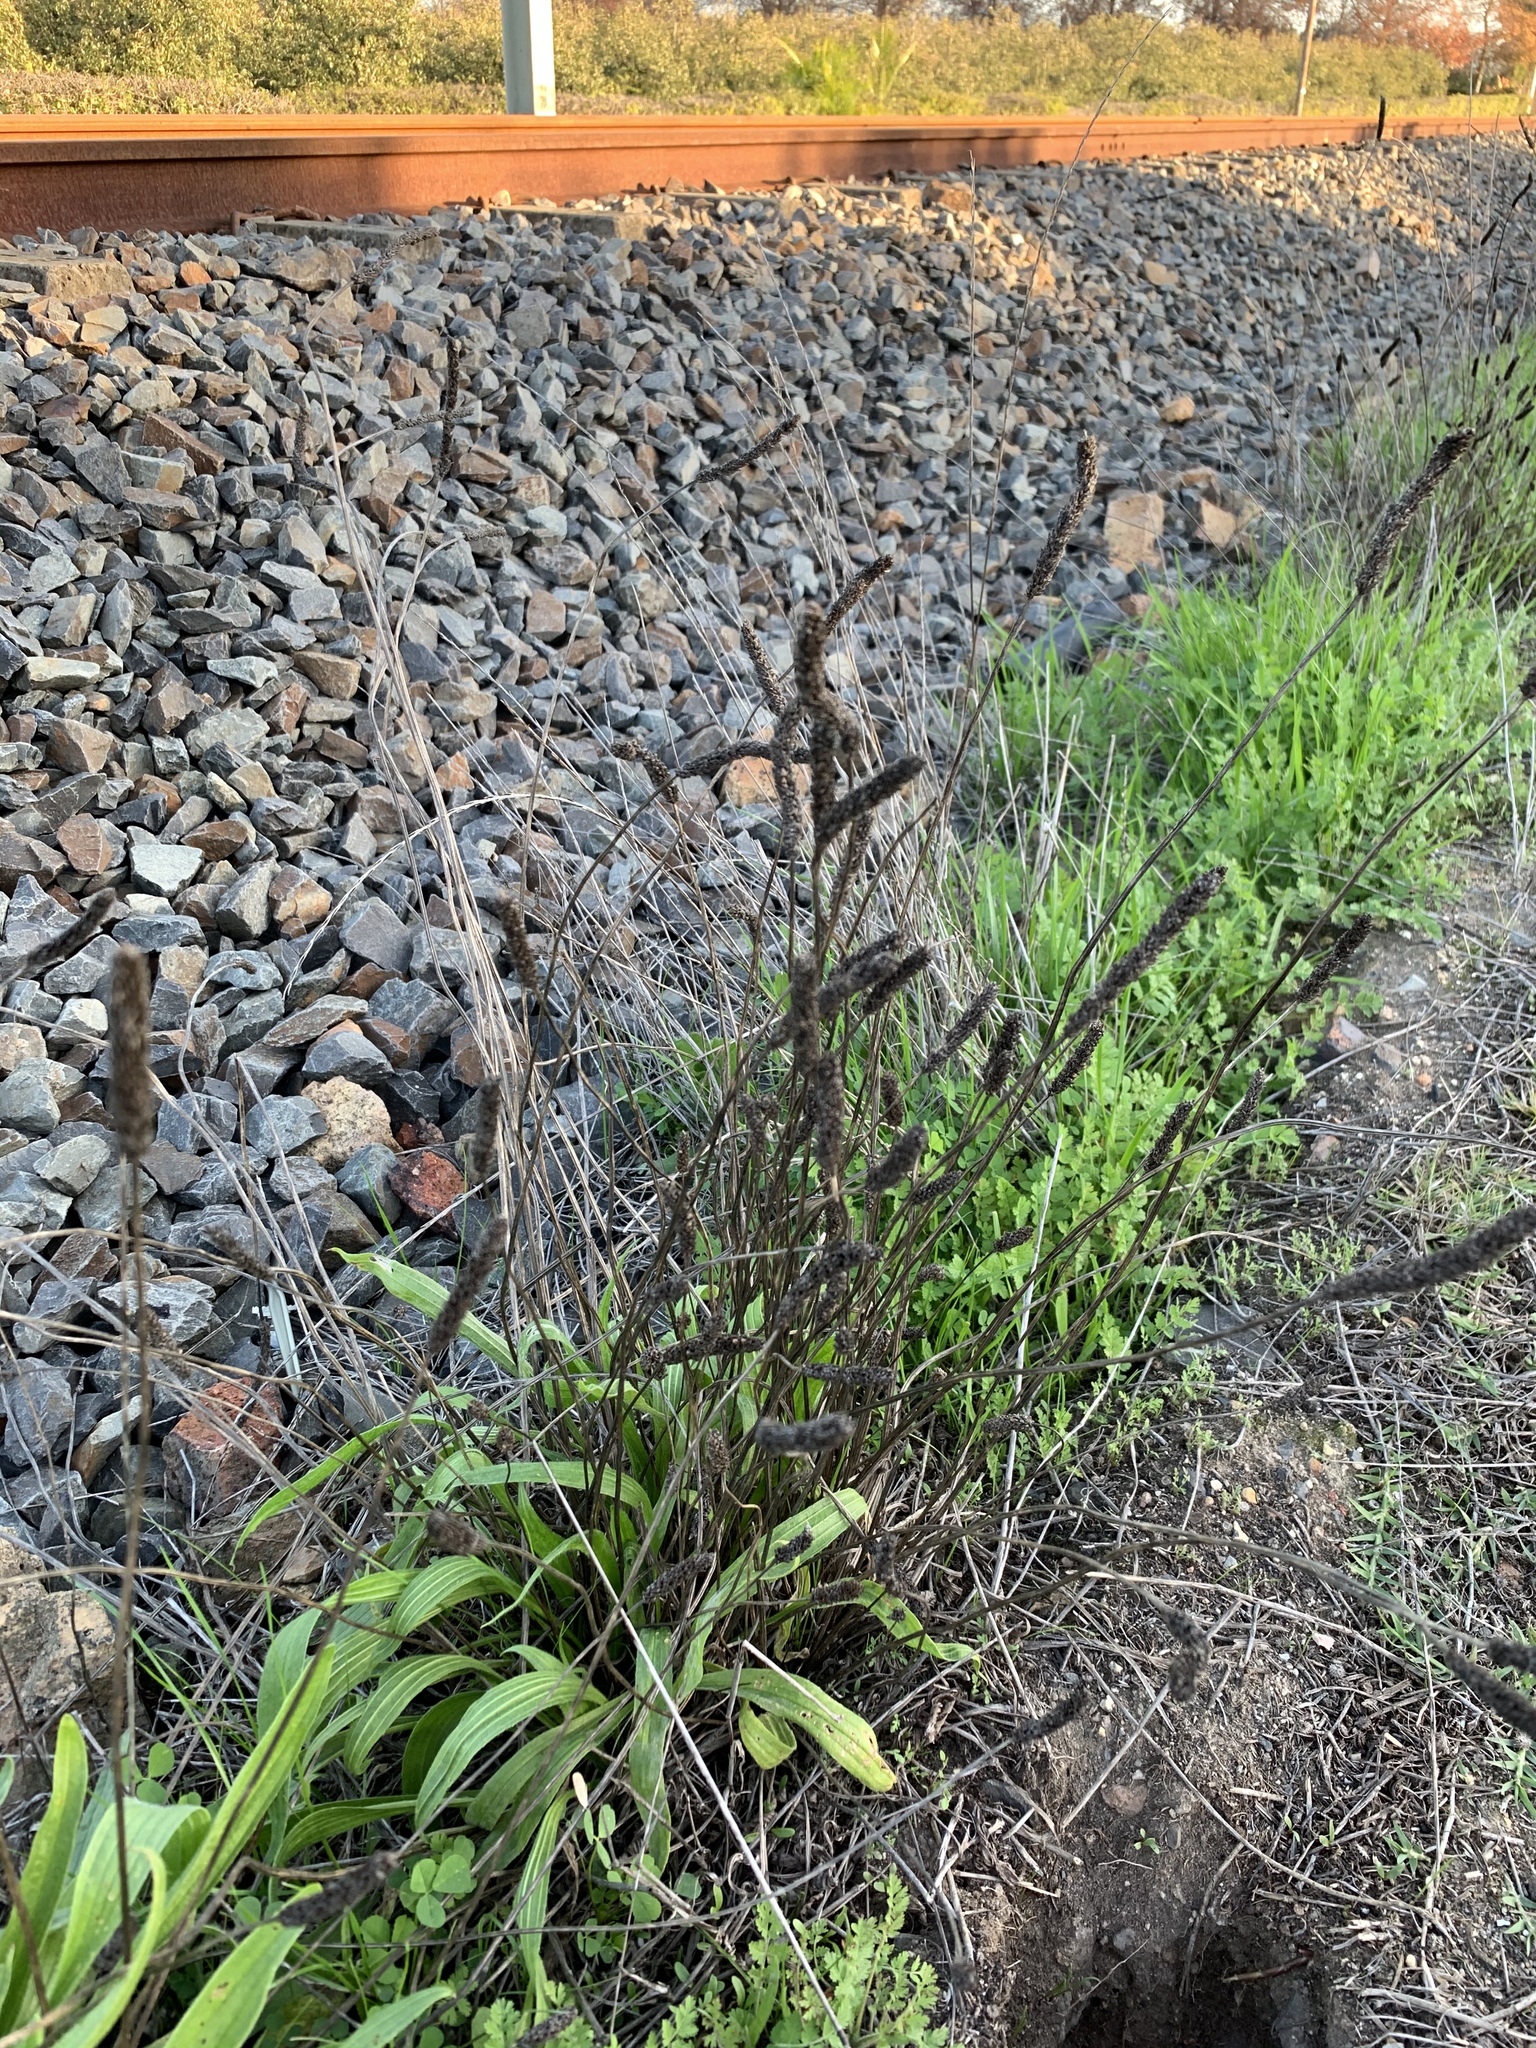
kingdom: Plantae
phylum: Tracheophyta
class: Magnoliopsida
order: Lamiales
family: Plantaginaceae
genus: Plantago
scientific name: Plantago lanceolata
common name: Ribwort plantain
